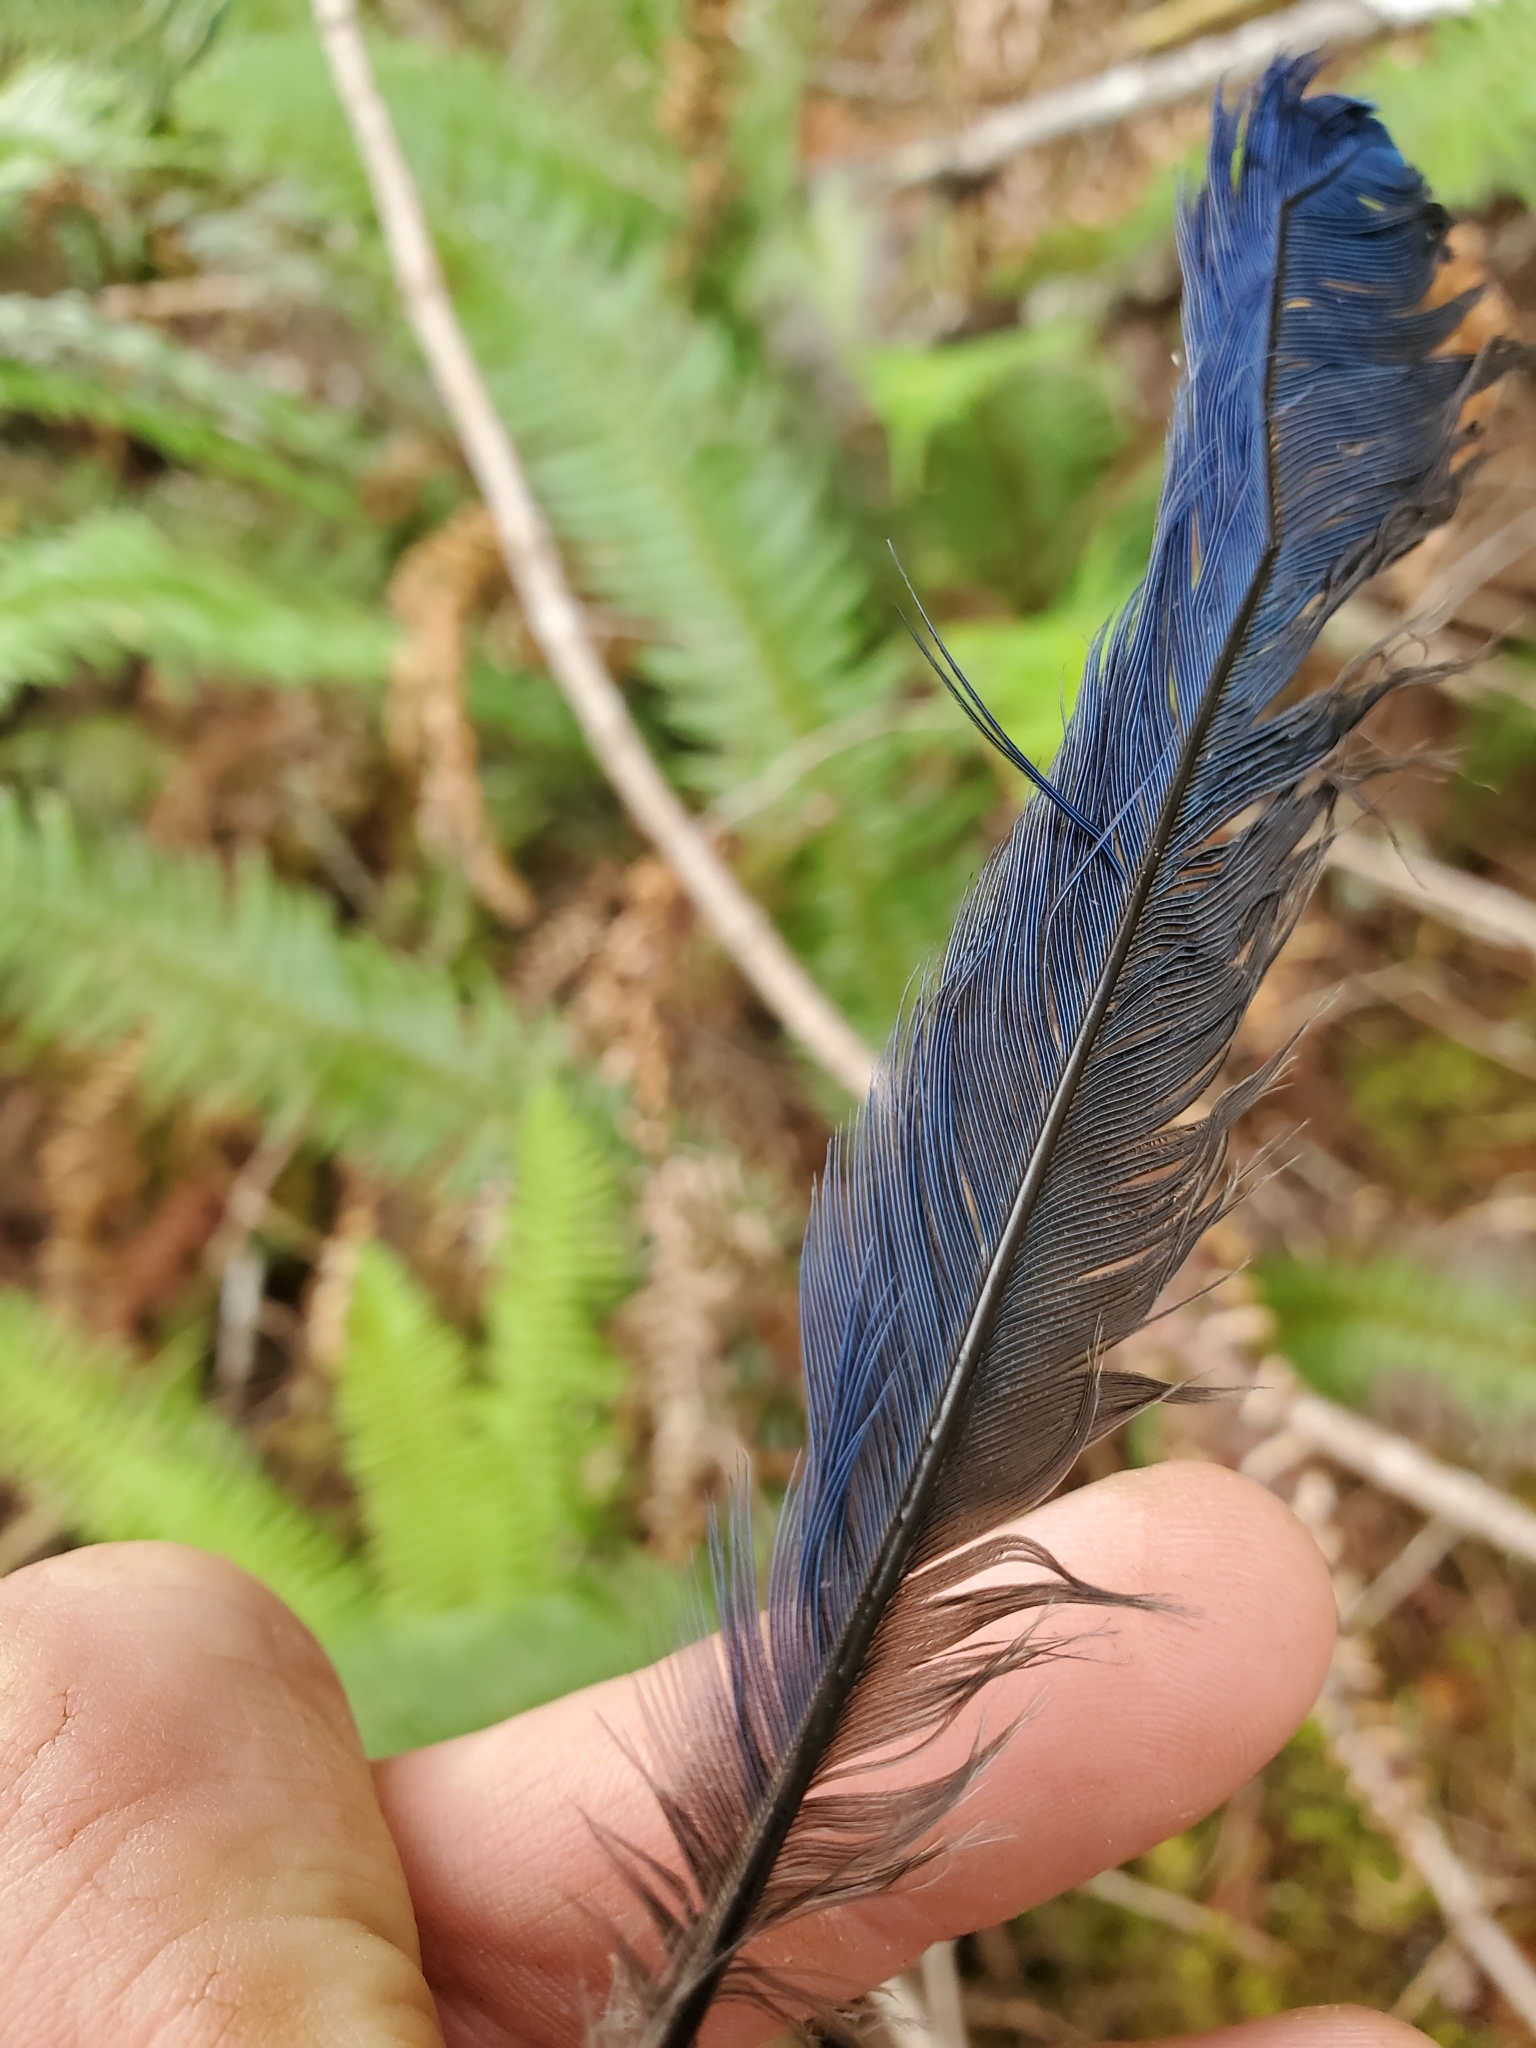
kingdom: Animalia
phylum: Chordata
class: Aves
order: Passeriformes
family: Corvidae
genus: Cyanocitta
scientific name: Cyanocitta stelleri
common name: Steller's jay
